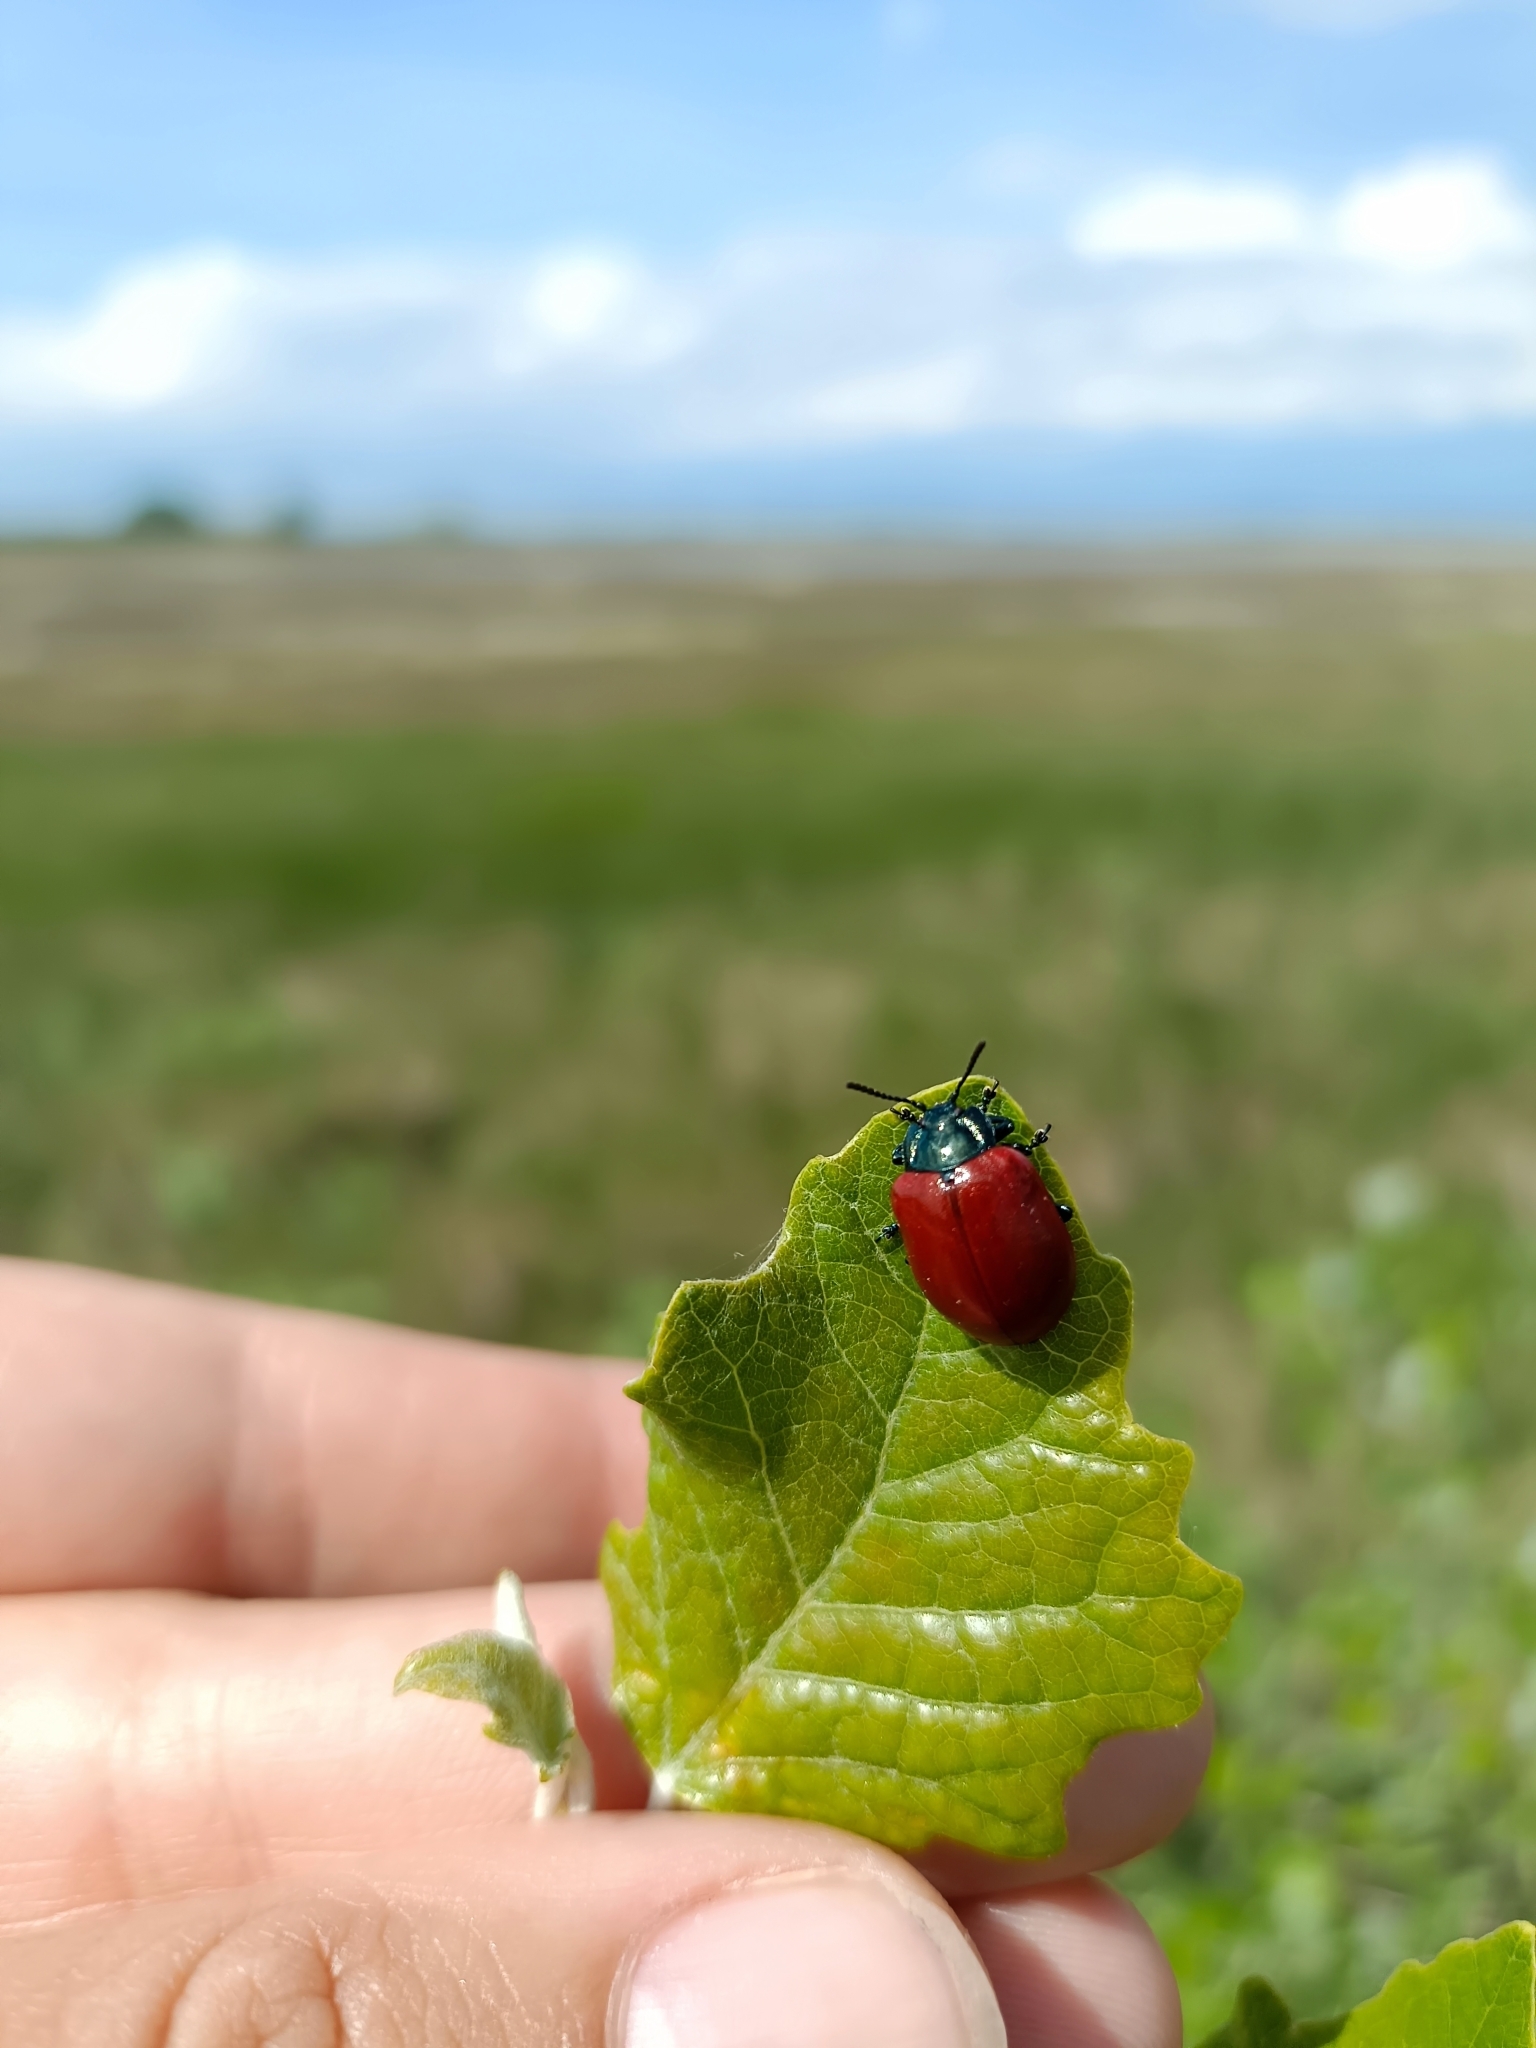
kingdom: Animalia
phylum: Arthropoda
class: Insecta
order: Coleoptera
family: Chrysomelidae
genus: Chrysomela
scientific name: Chrysomela populi
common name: Red poplar leaf beetle
